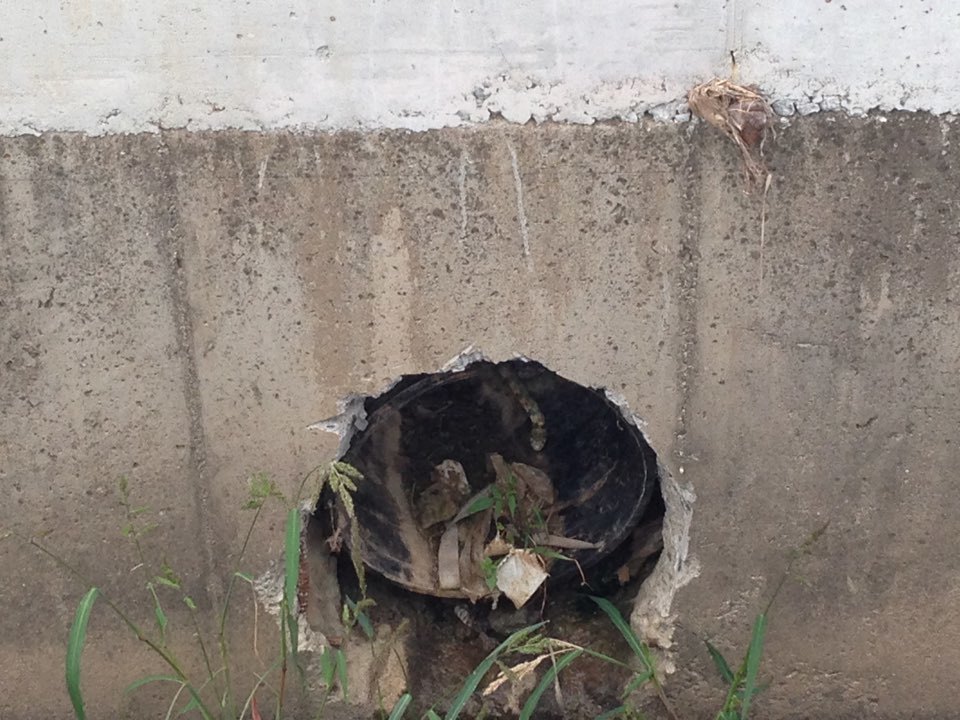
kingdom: Animalia
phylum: Chordata
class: Squamata
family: Colubridae
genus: Rhabdophis
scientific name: Rhabdophis tigrinus
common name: Tiger keelback
